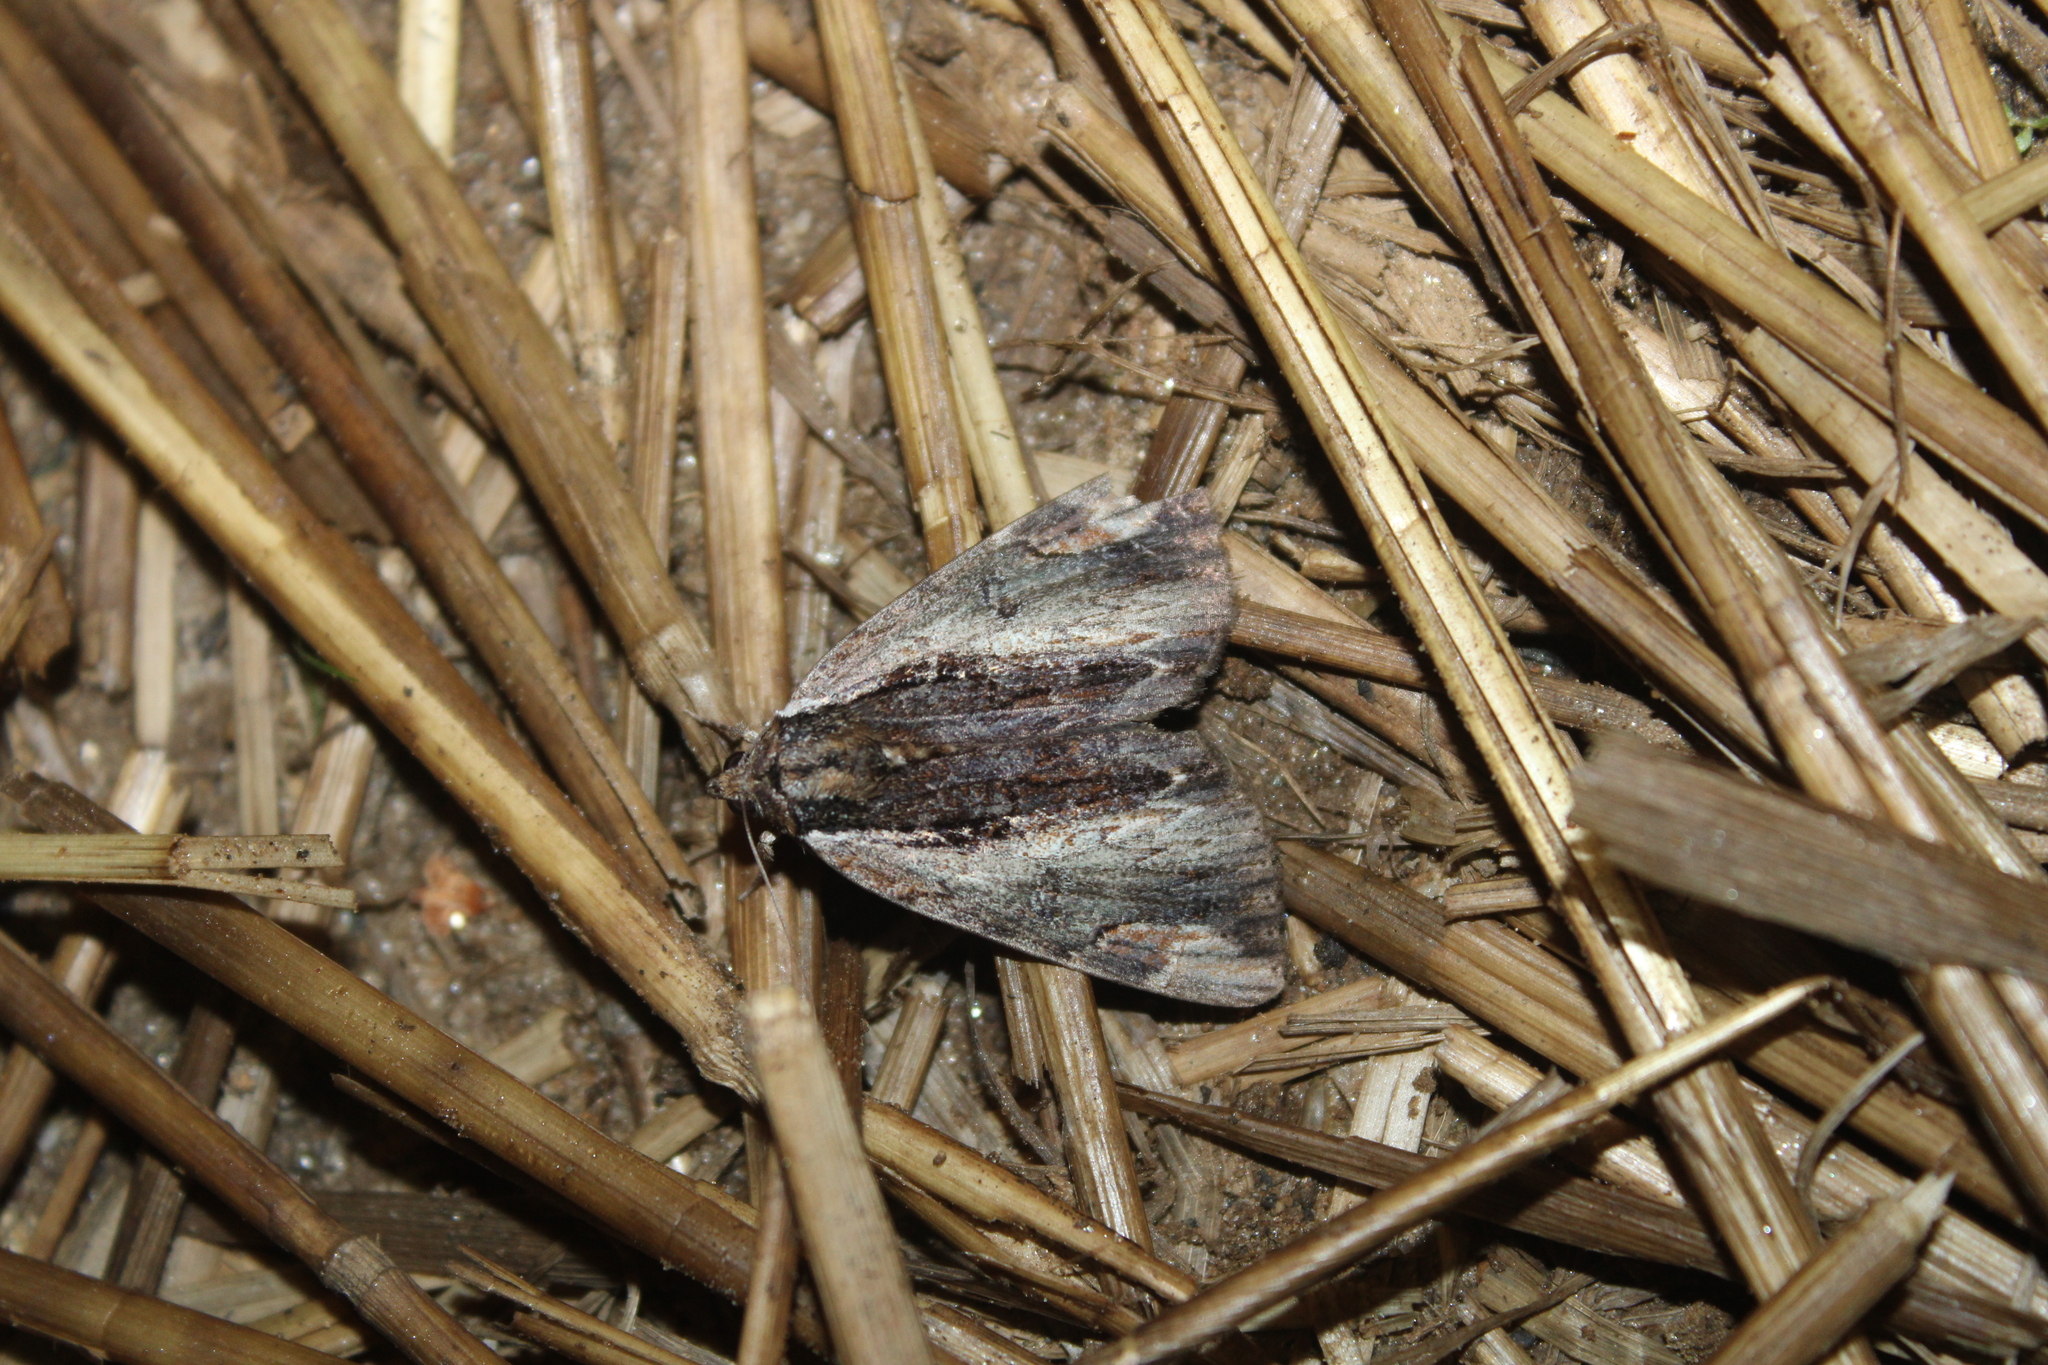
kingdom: Animalia
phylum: Arthropoda
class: Insecta
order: Lepidoptera
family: Erebidae
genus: Catocala
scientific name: Catocala ultronia
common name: Ultronia underwing
